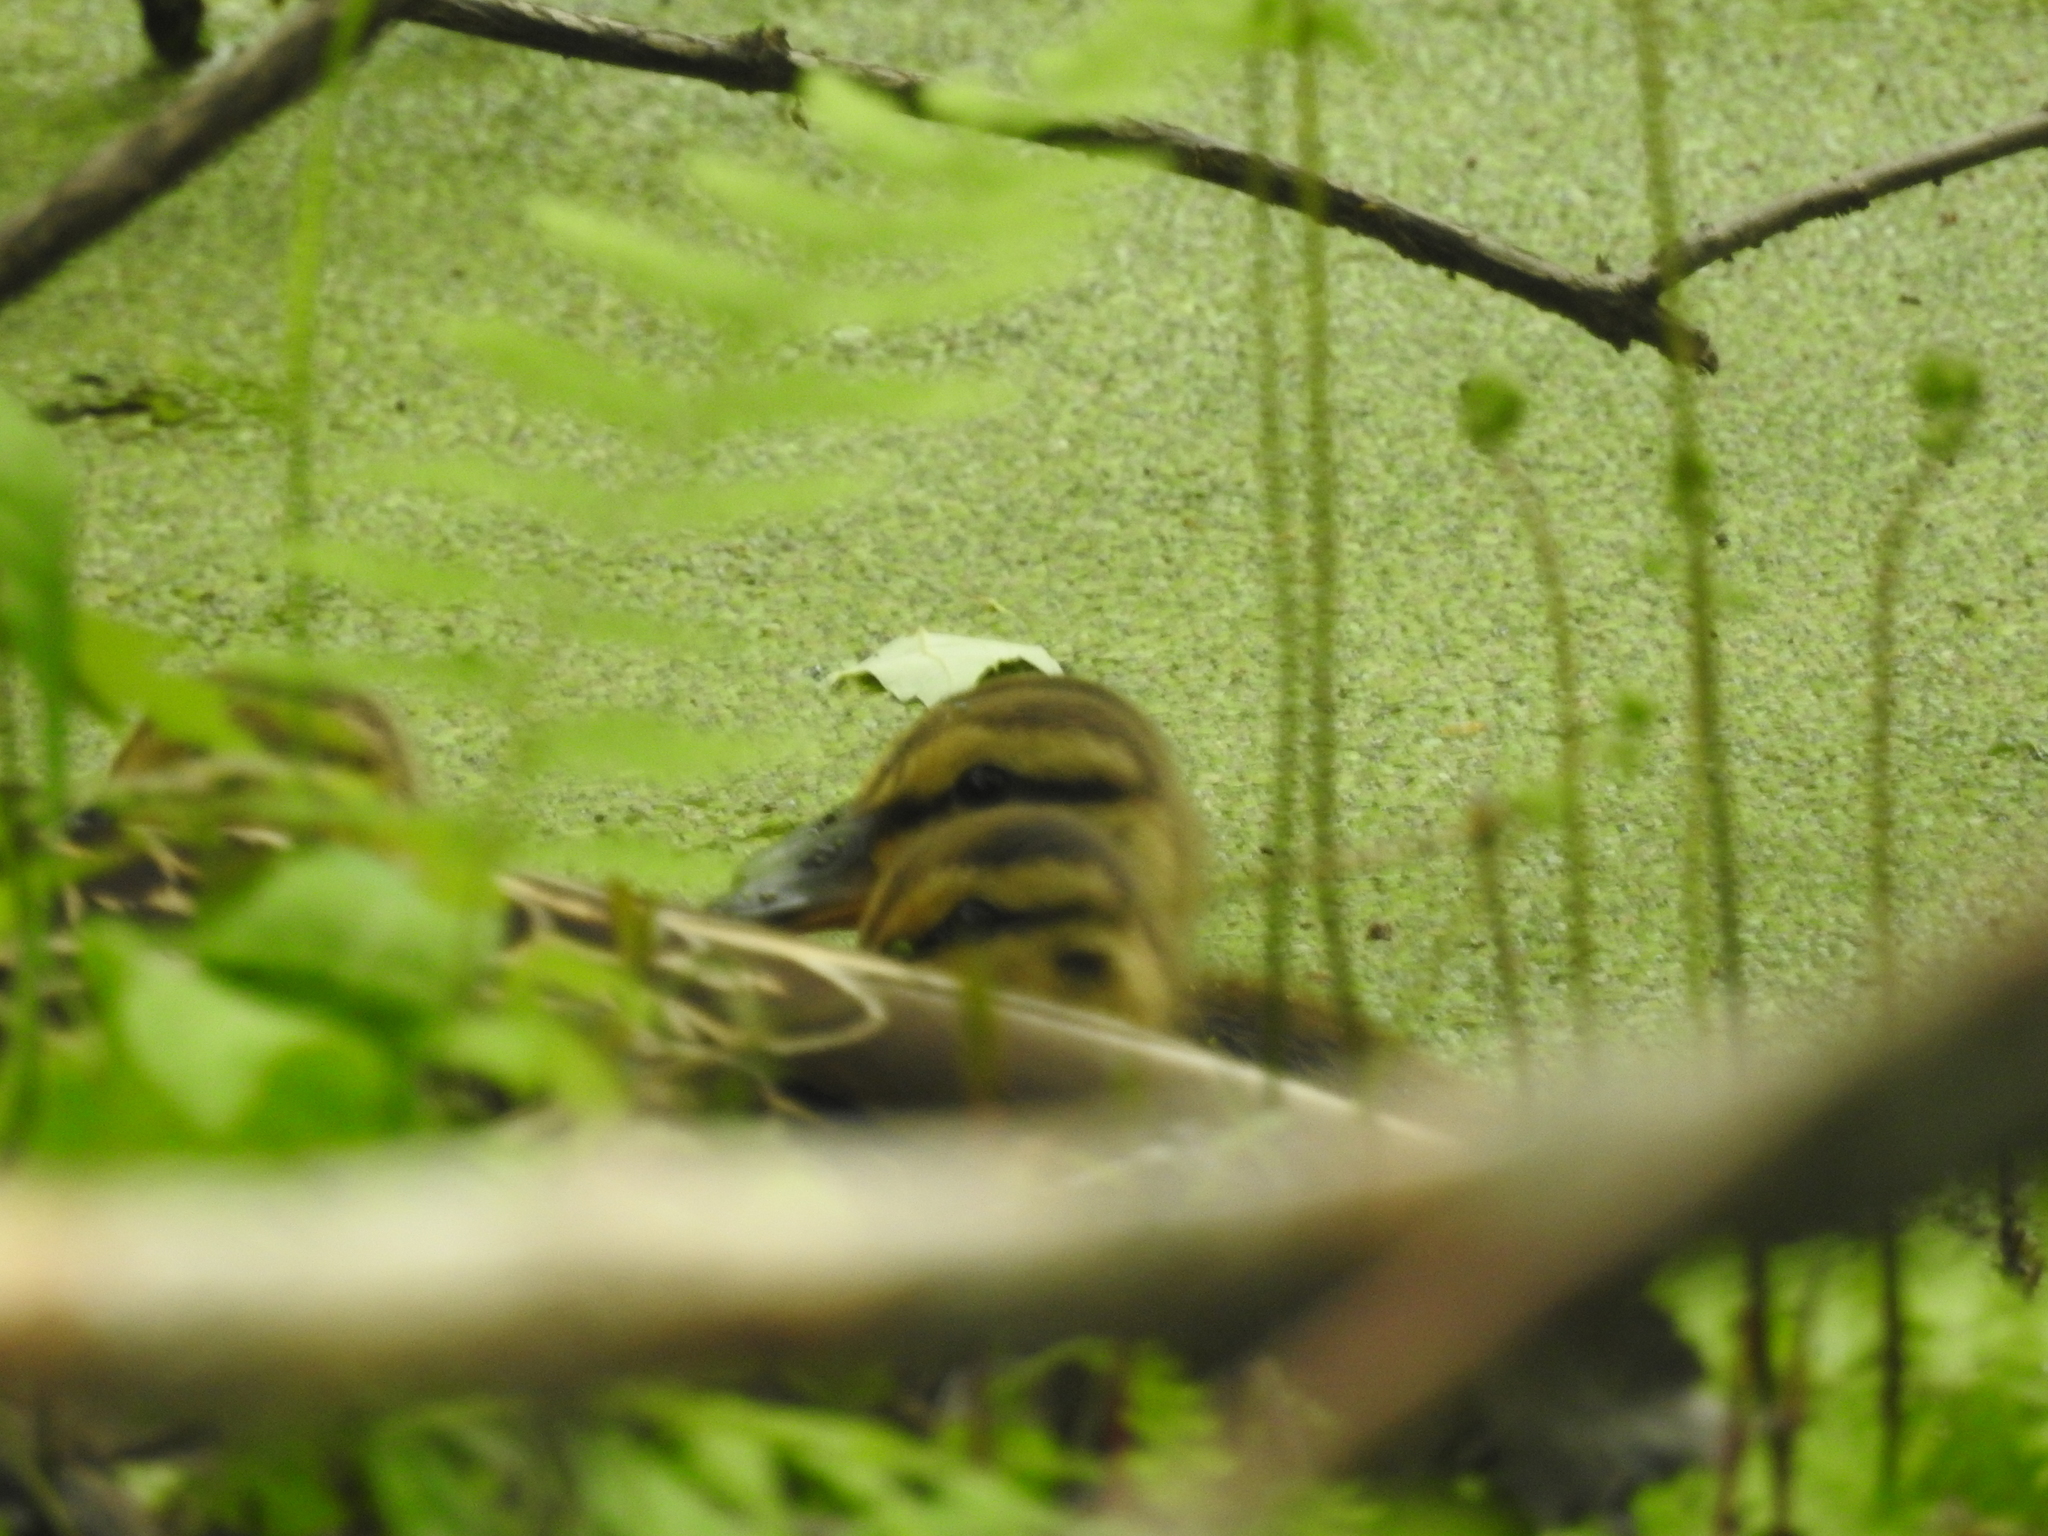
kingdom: Animalia
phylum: Chordata
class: Aves
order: Anseriformes
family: Anatidae
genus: Anas
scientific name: Anas platyrhynchos
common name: Mallard
